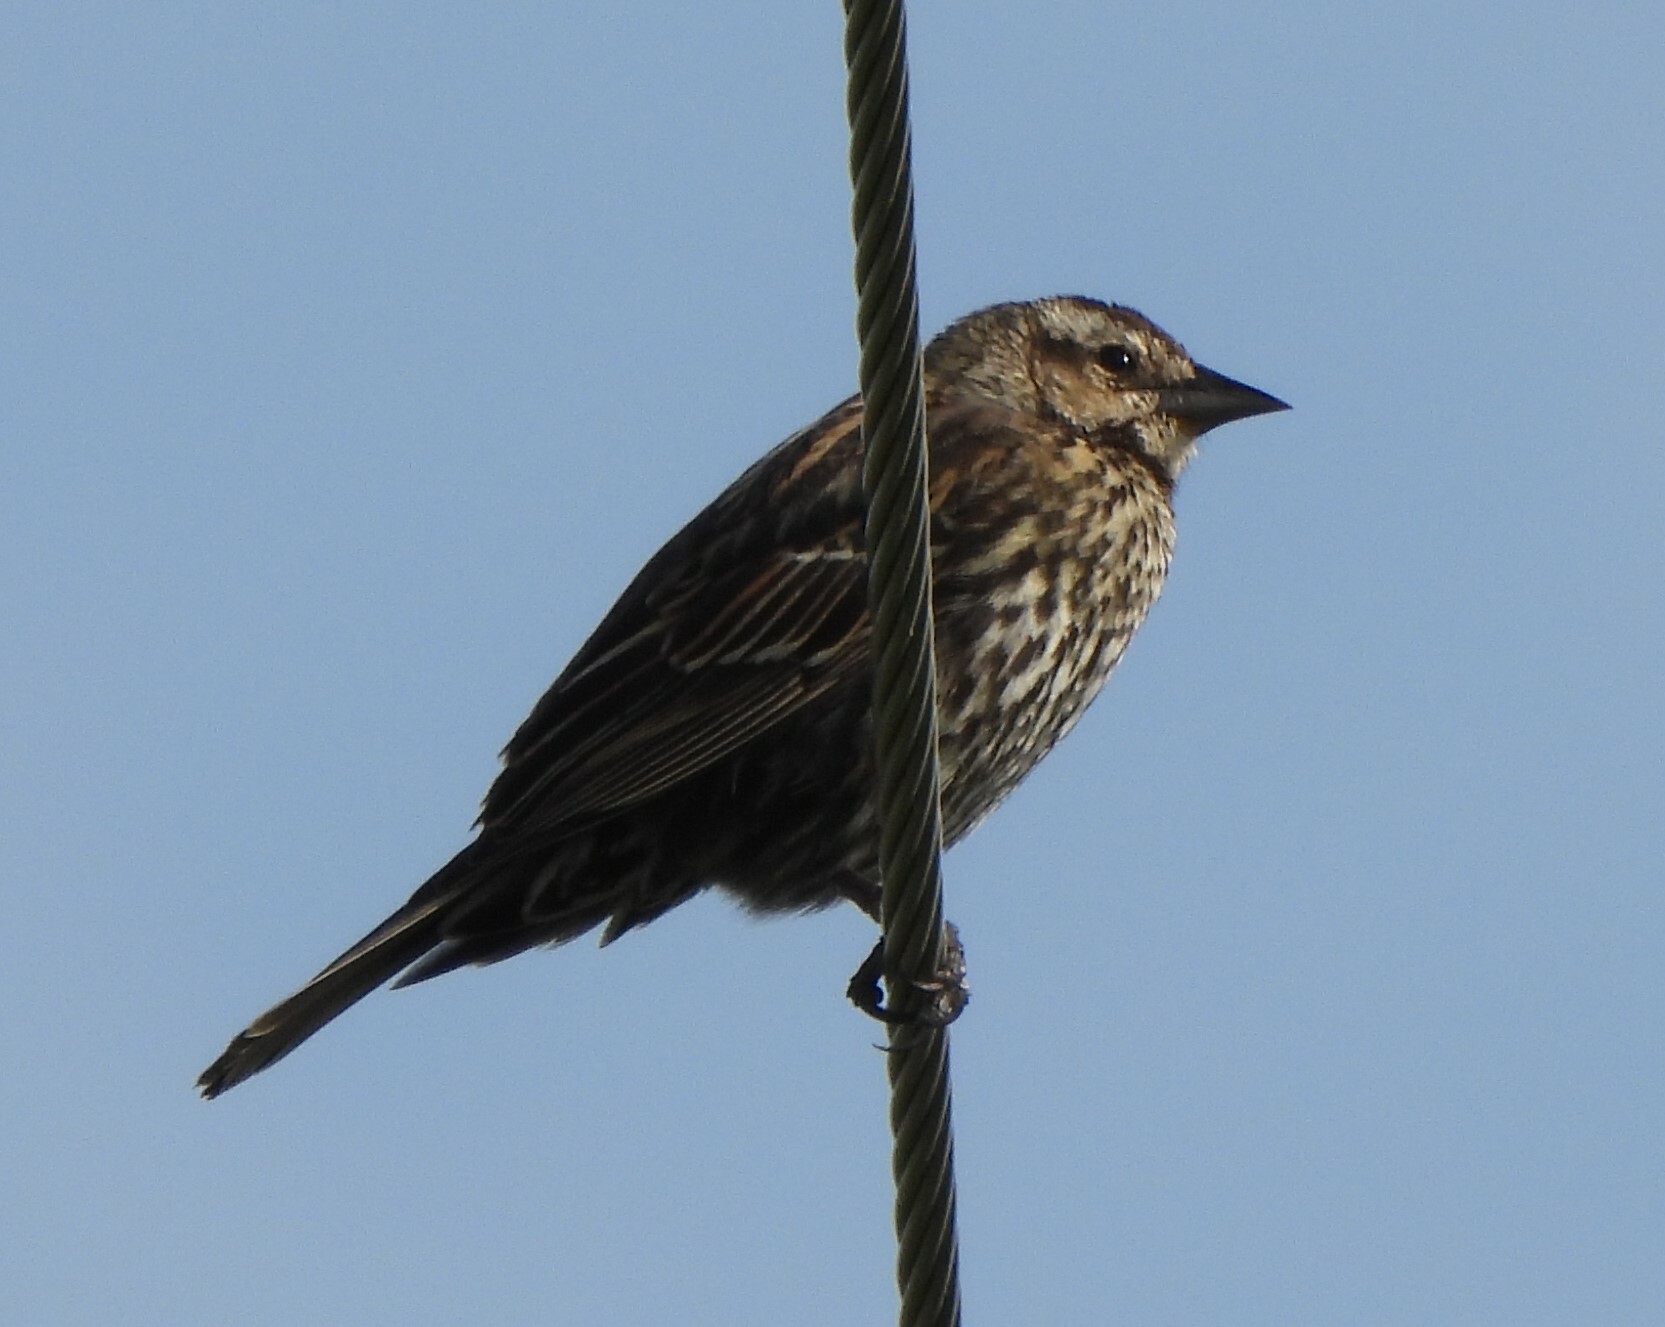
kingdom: Animalia
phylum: Chordata
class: Aves
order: Passeriformes
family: Icteridae
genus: Agelaius
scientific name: Agelaius phoeniceus
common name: Red-winged blackbird
